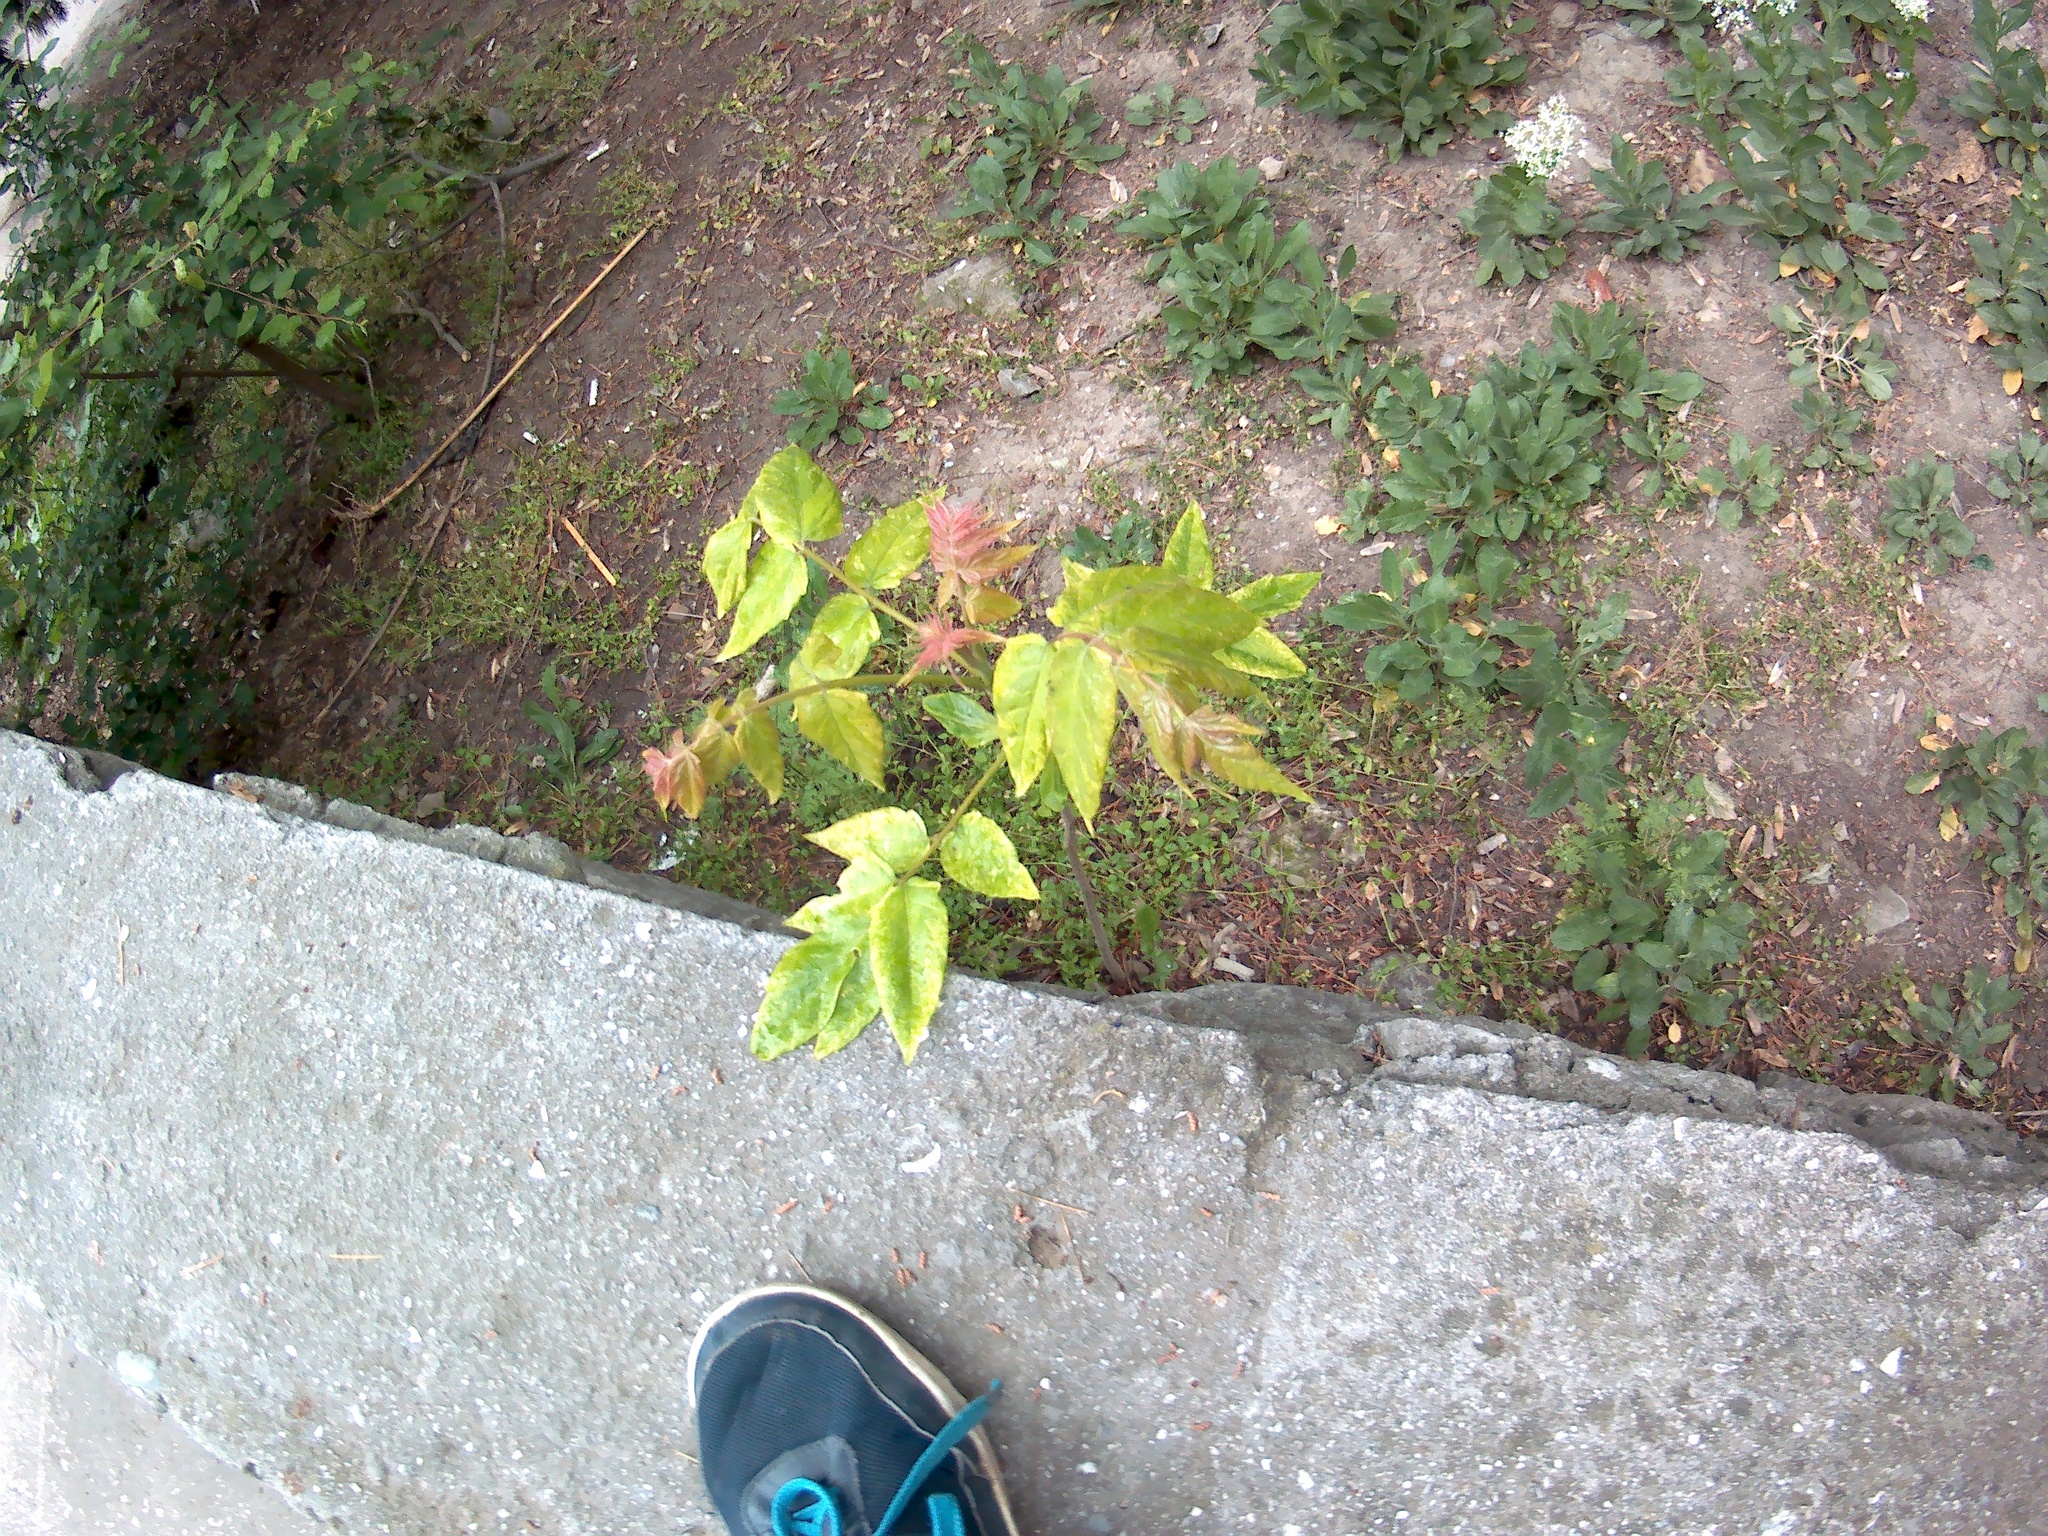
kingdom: Plantae
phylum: Tracheophyta
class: Magnoliopsida
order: Sapindales
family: Simaroubaceae
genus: Ailanthus
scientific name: Ailanthus altissima
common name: Tree-of-heaven
